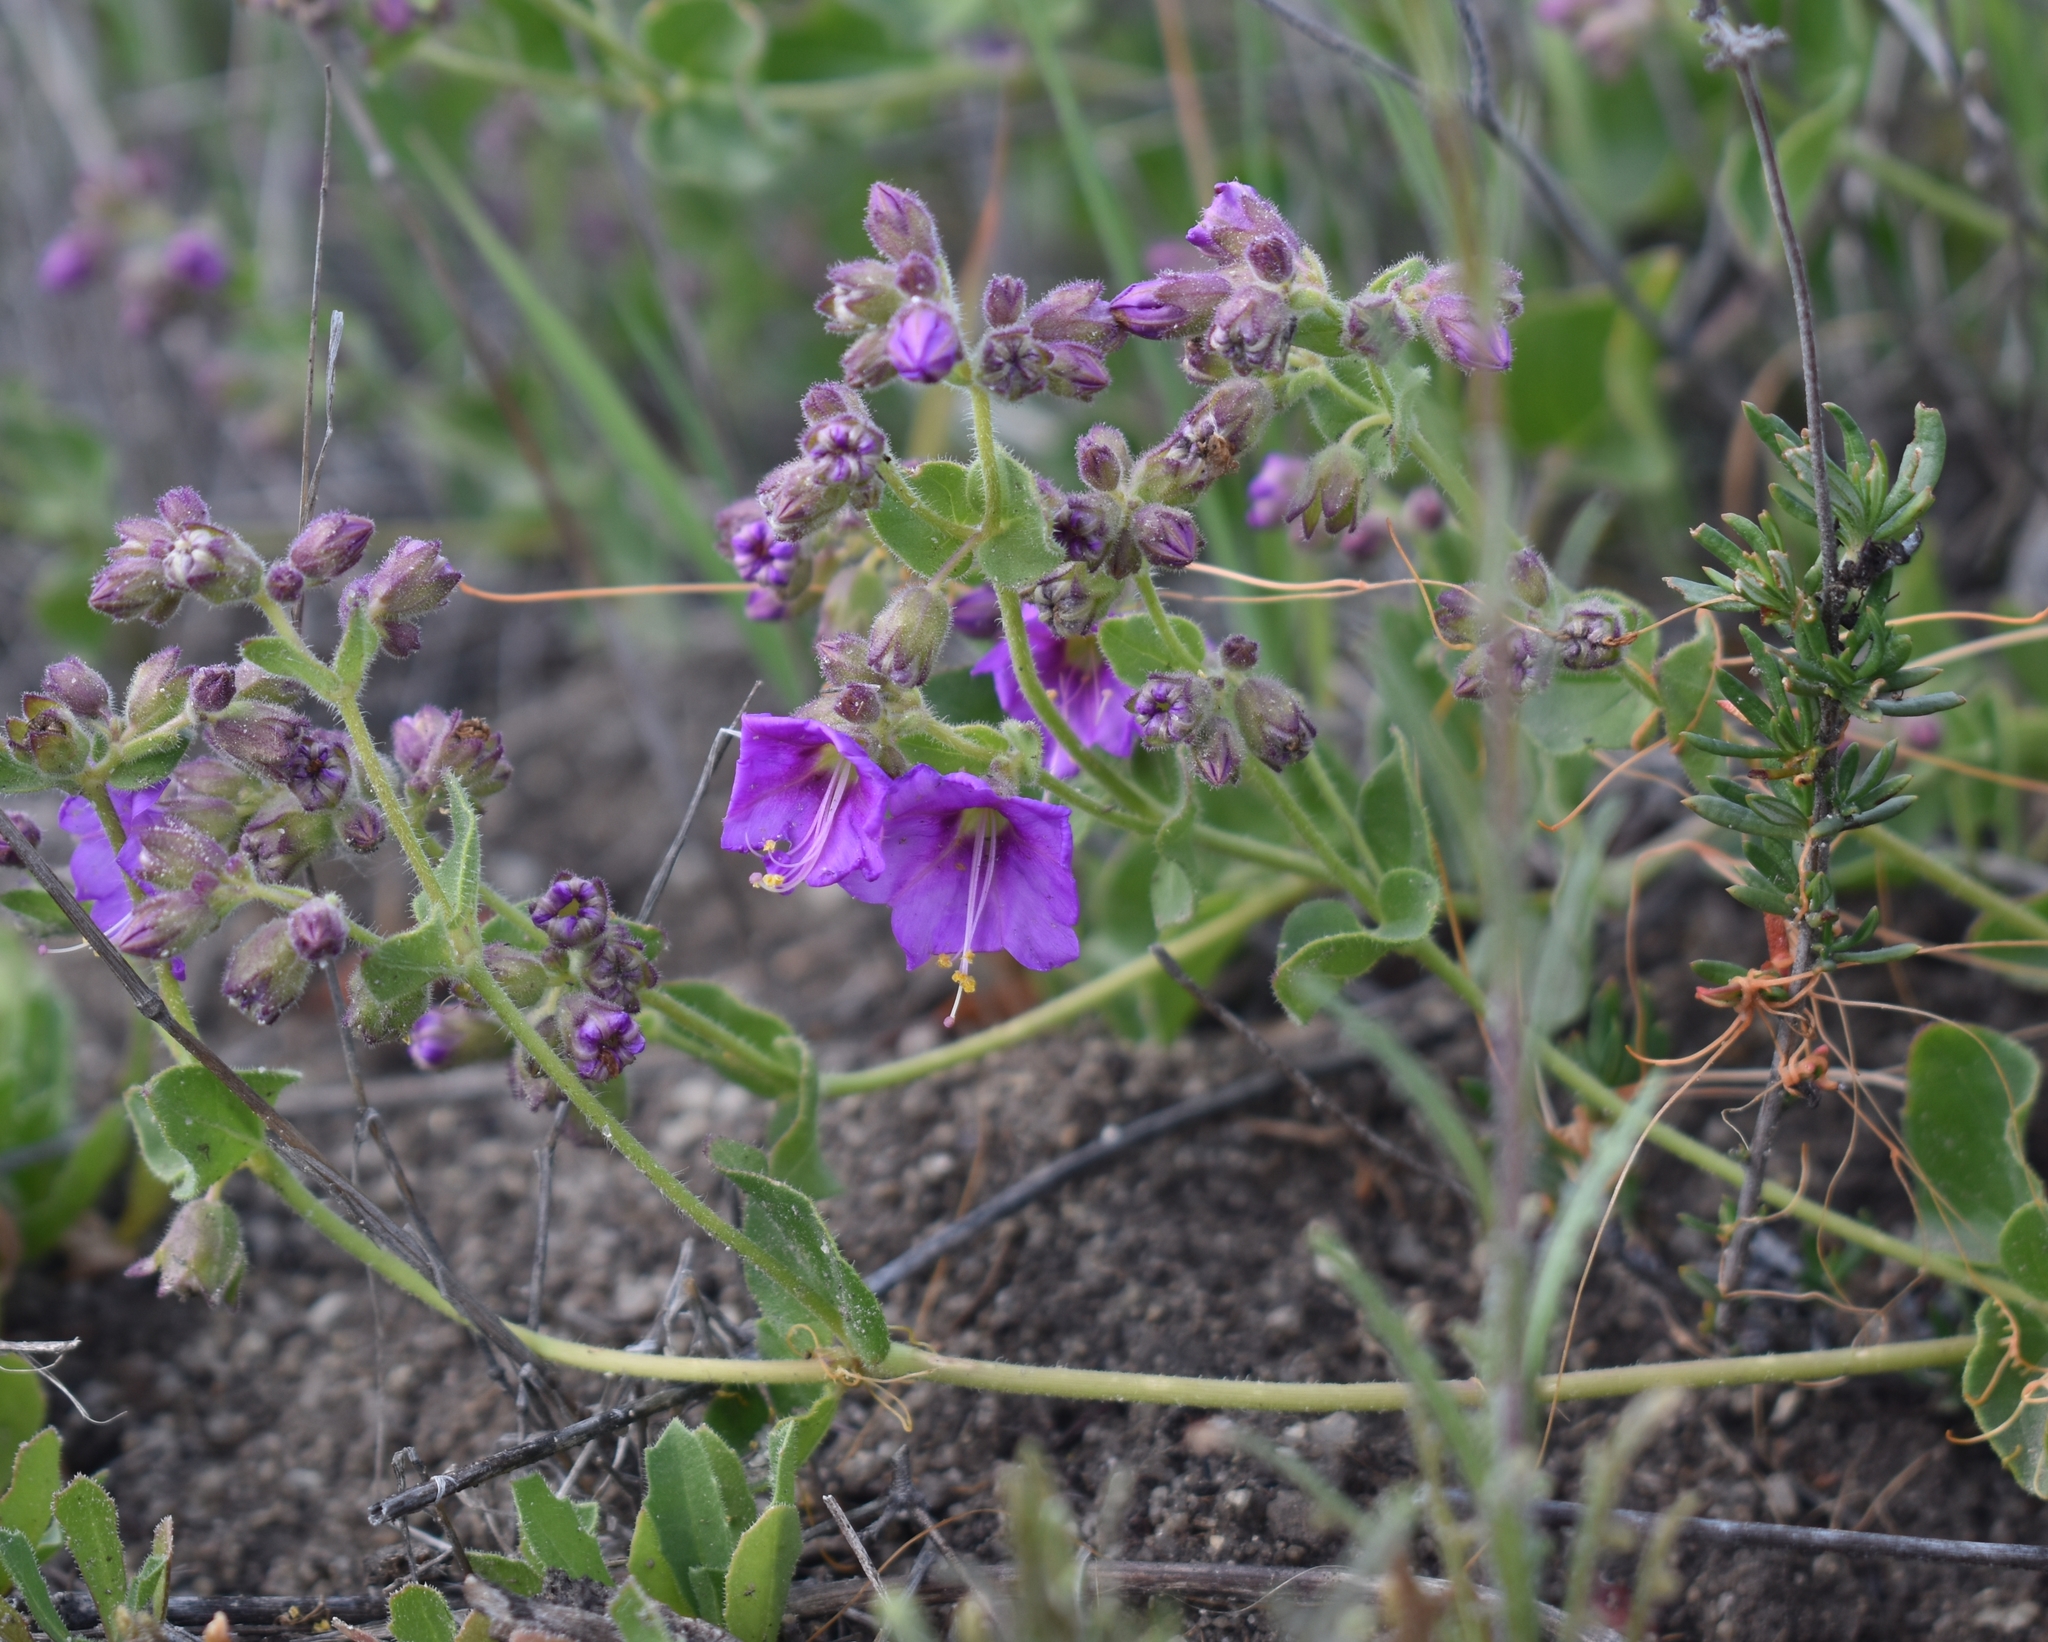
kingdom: Plantae
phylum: Tracheophyta
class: Magnoliopsida
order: Caryophyllales
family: Nyctaginaceae
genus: Mirabilis
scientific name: Mirabilis laevis
